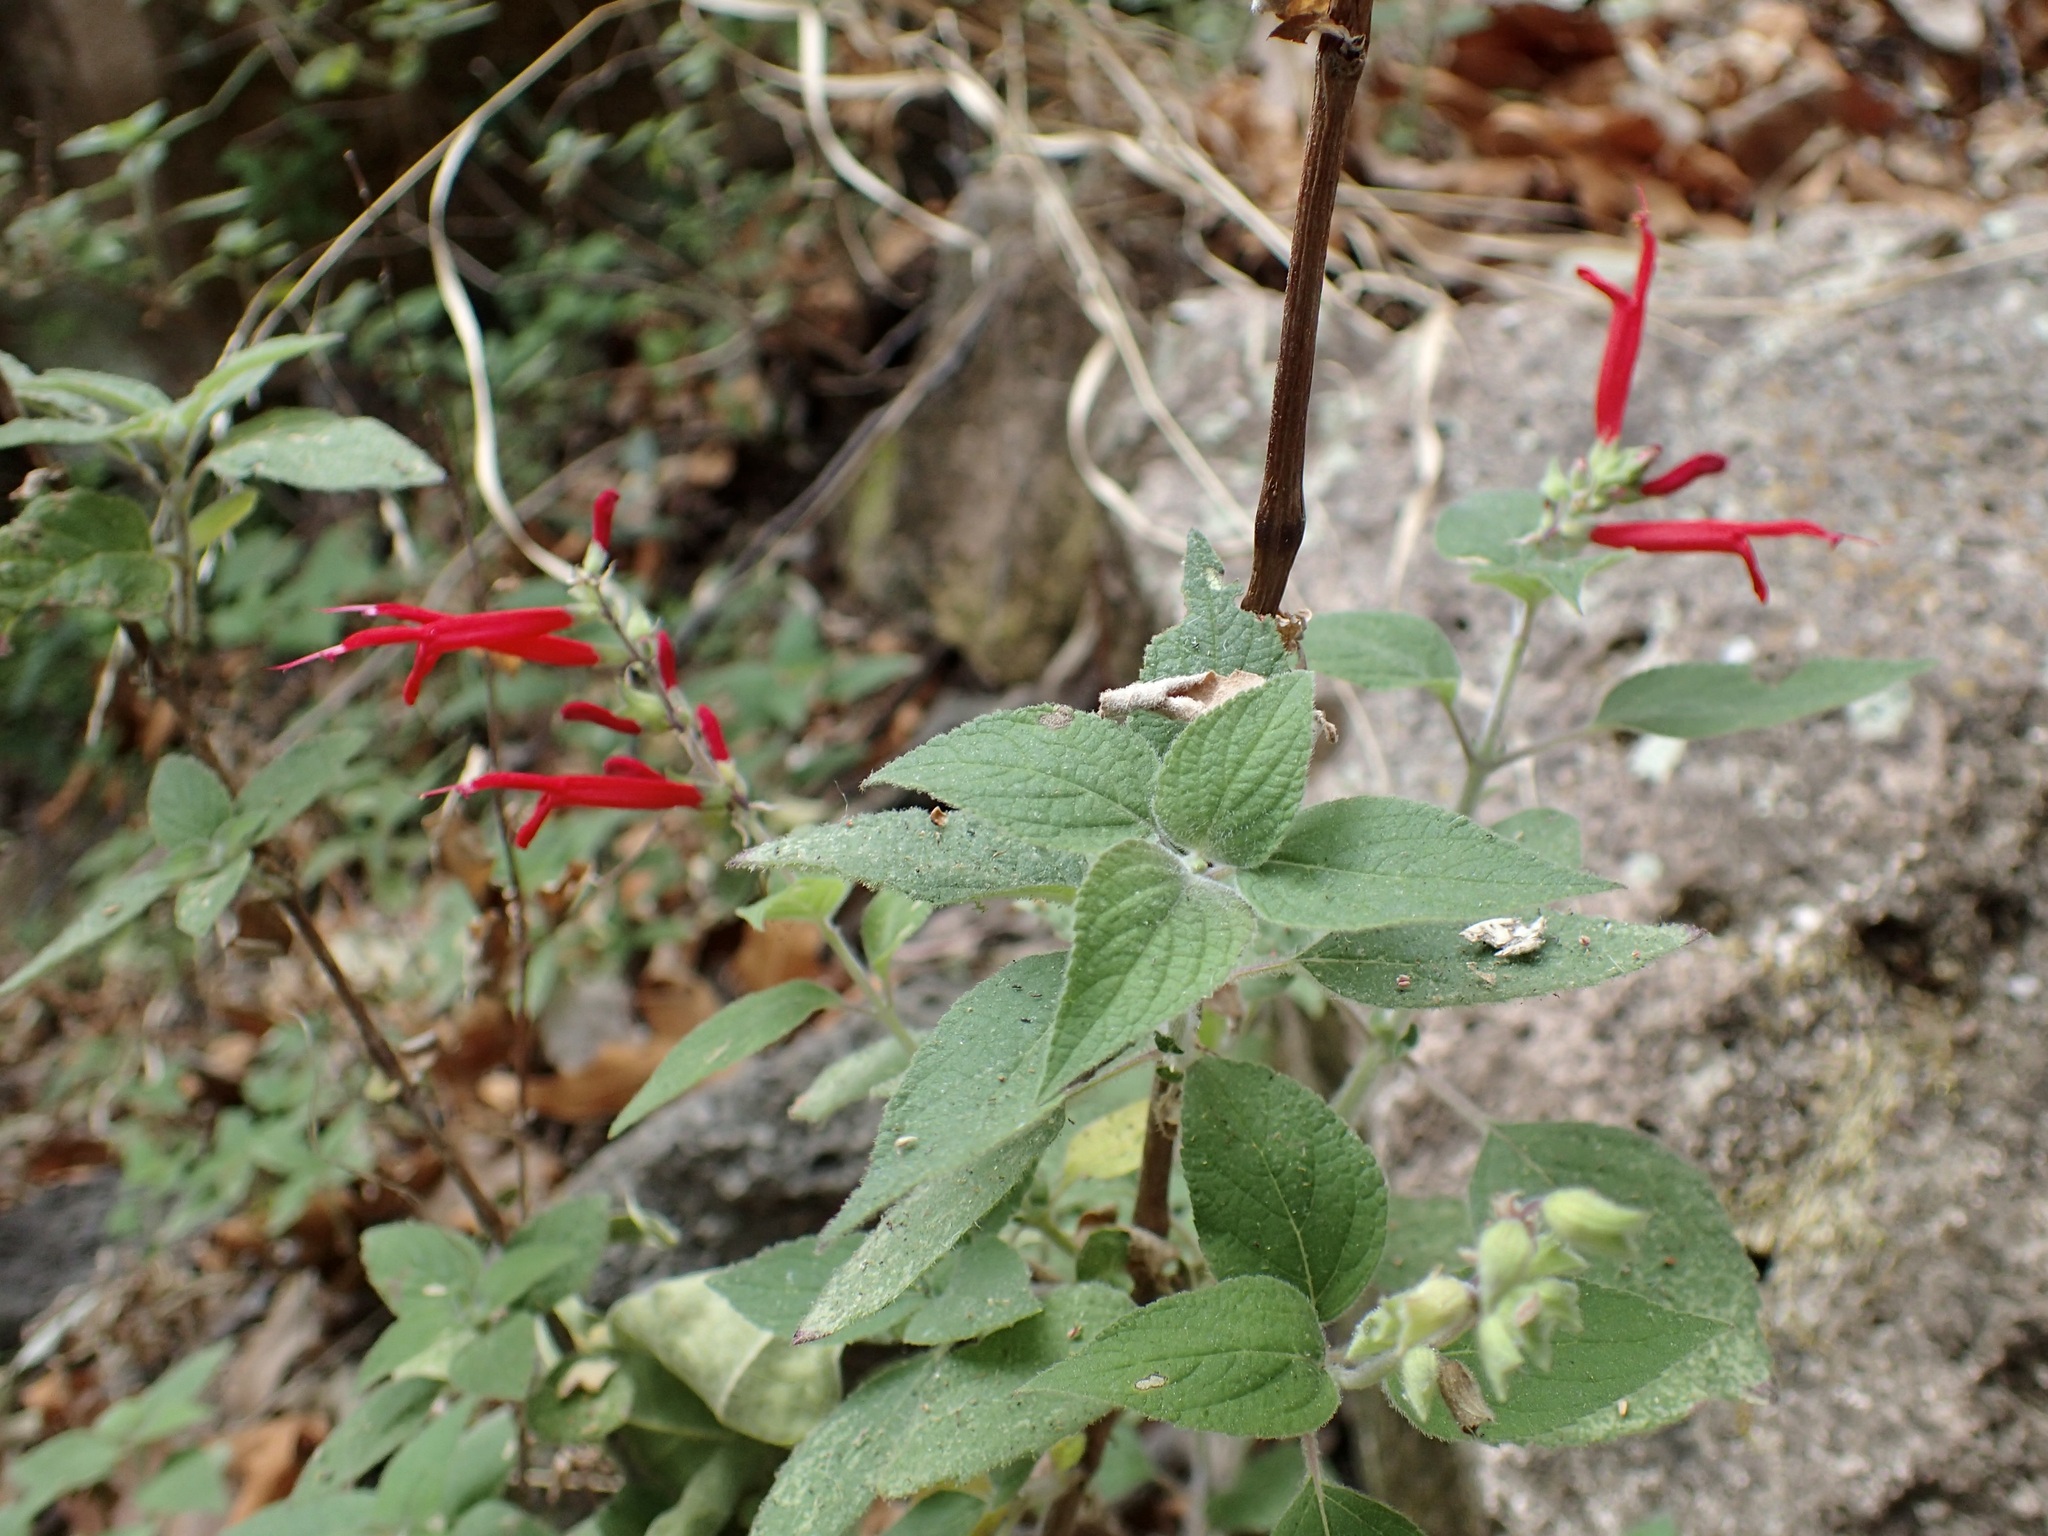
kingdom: Plantae
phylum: Tracheophyta
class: Magnoliopsida
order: Lamiales
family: Lamiaceae
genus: Salvia
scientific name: Salvia elegans
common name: Pineapple sage
